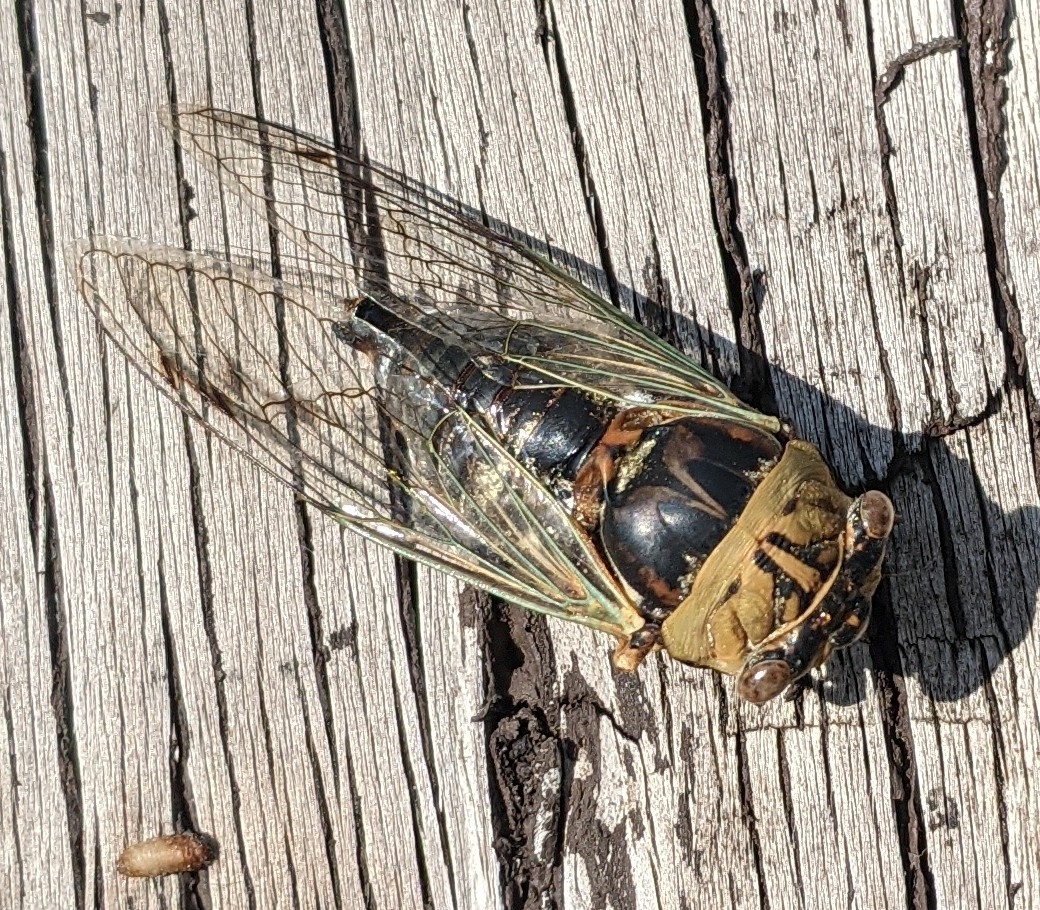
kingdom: Animalia
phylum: Arthropoda
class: Insecta
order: Hemiptera
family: Cicadidae
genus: Megatibicen
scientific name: Megatibicen resh
